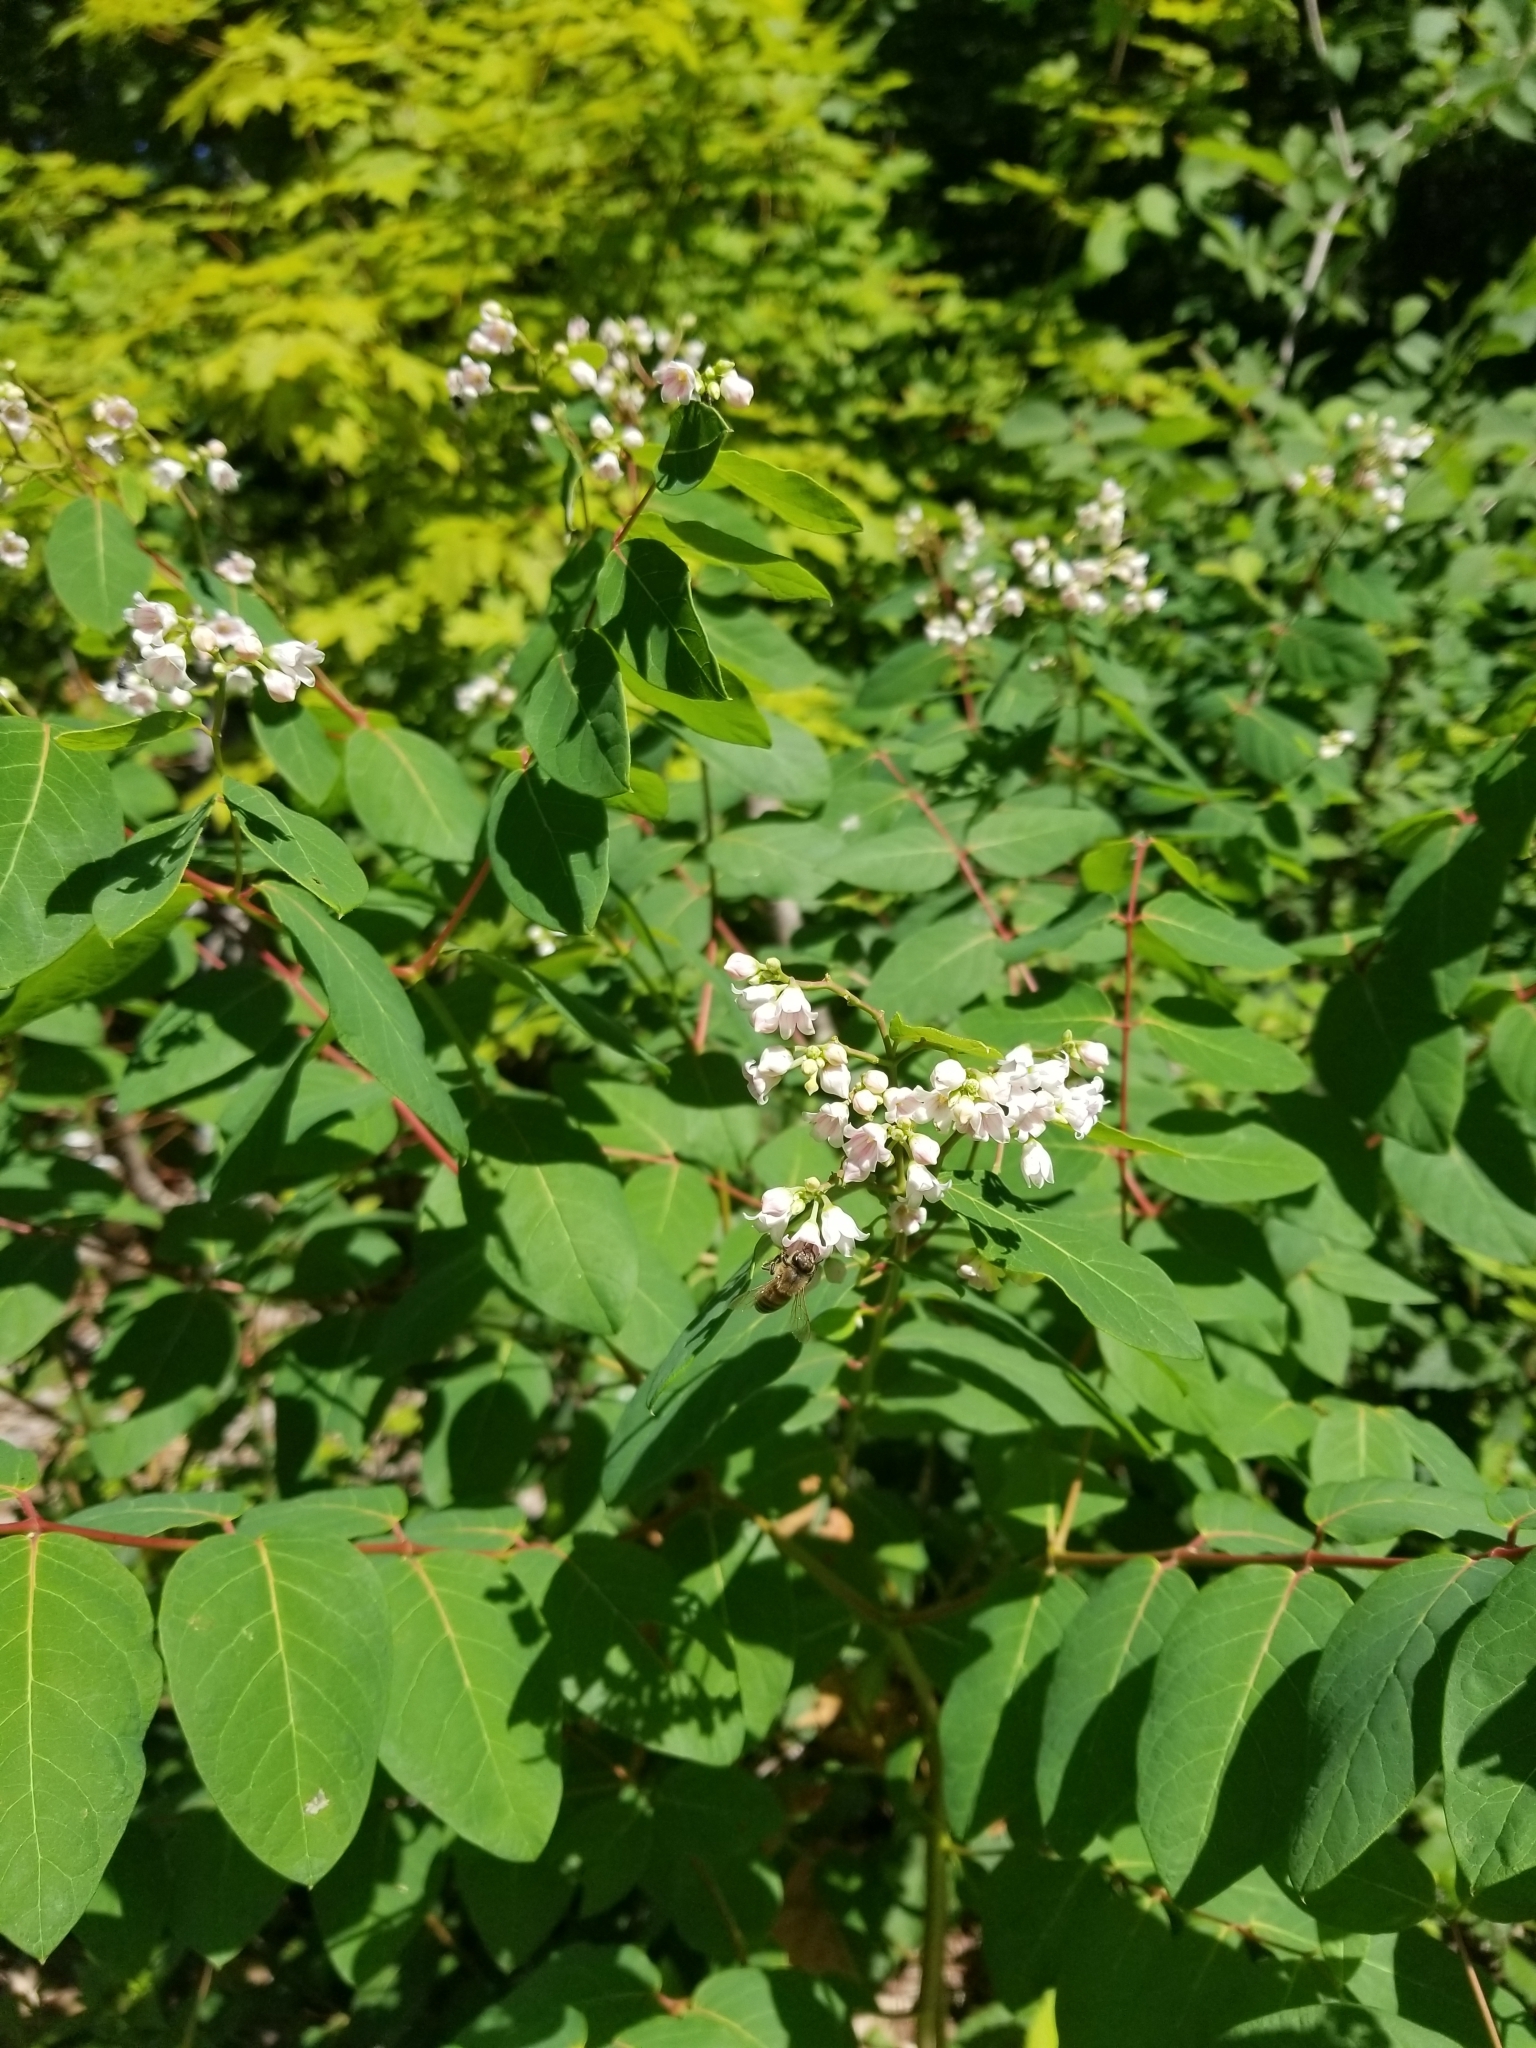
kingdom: Plantae
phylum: Tracheophyta
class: Magnoliopsida
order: Gentianales
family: Apocynaceae
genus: Apocynum
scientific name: Apocynum androsaemifolium
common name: Spreading dogbane
